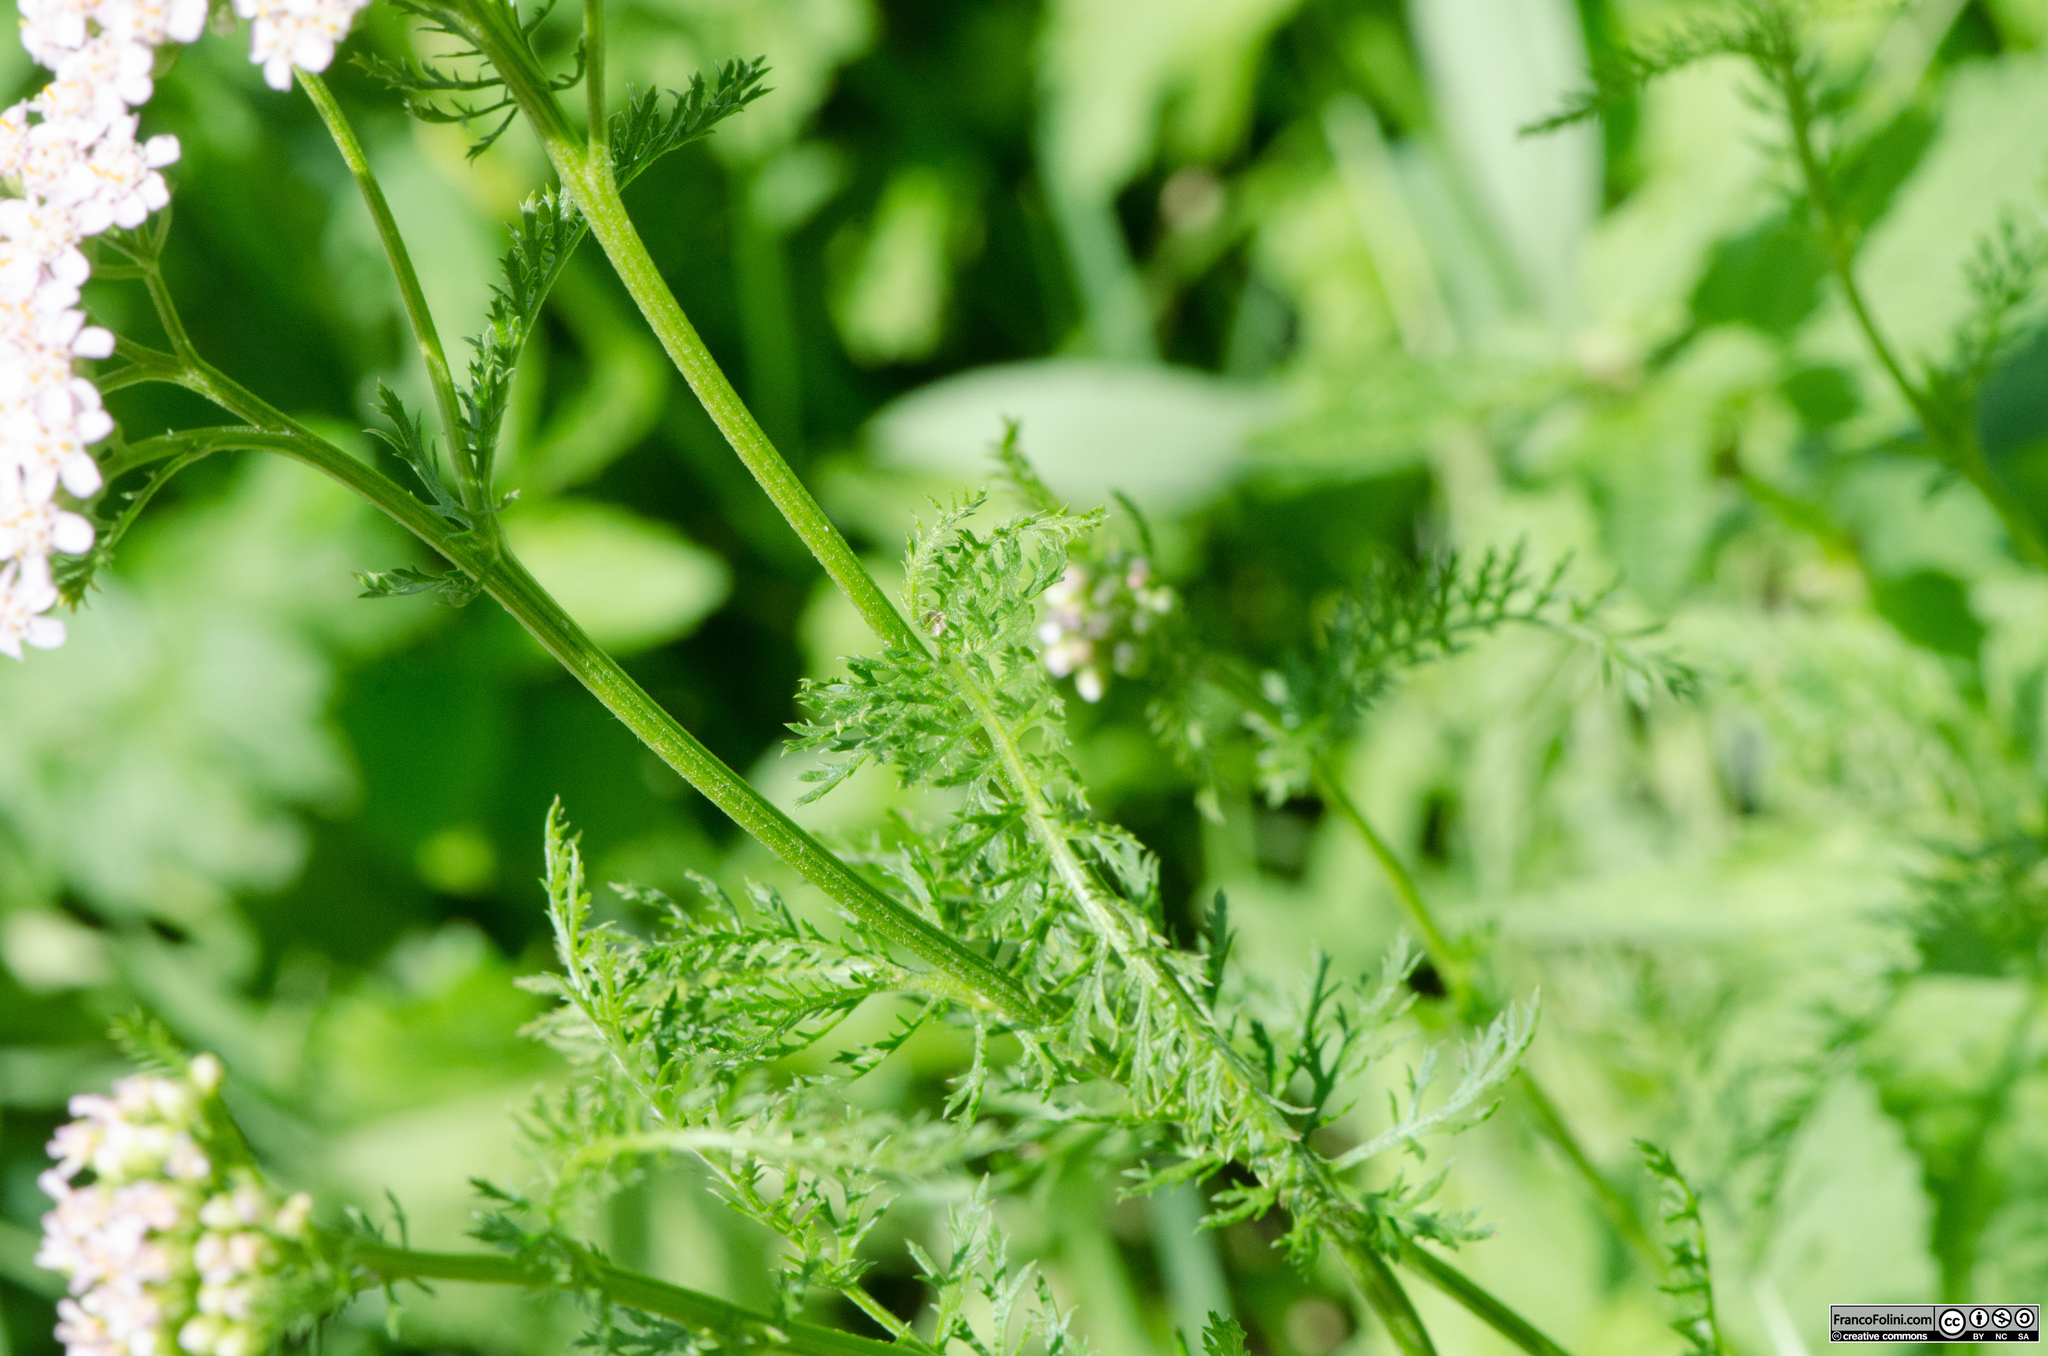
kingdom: Plantae
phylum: Tracheophyta
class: Magnoliopsida
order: Asterales
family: Asteraceae
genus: Achillea
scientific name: Achillea millefolium
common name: Yarrow
